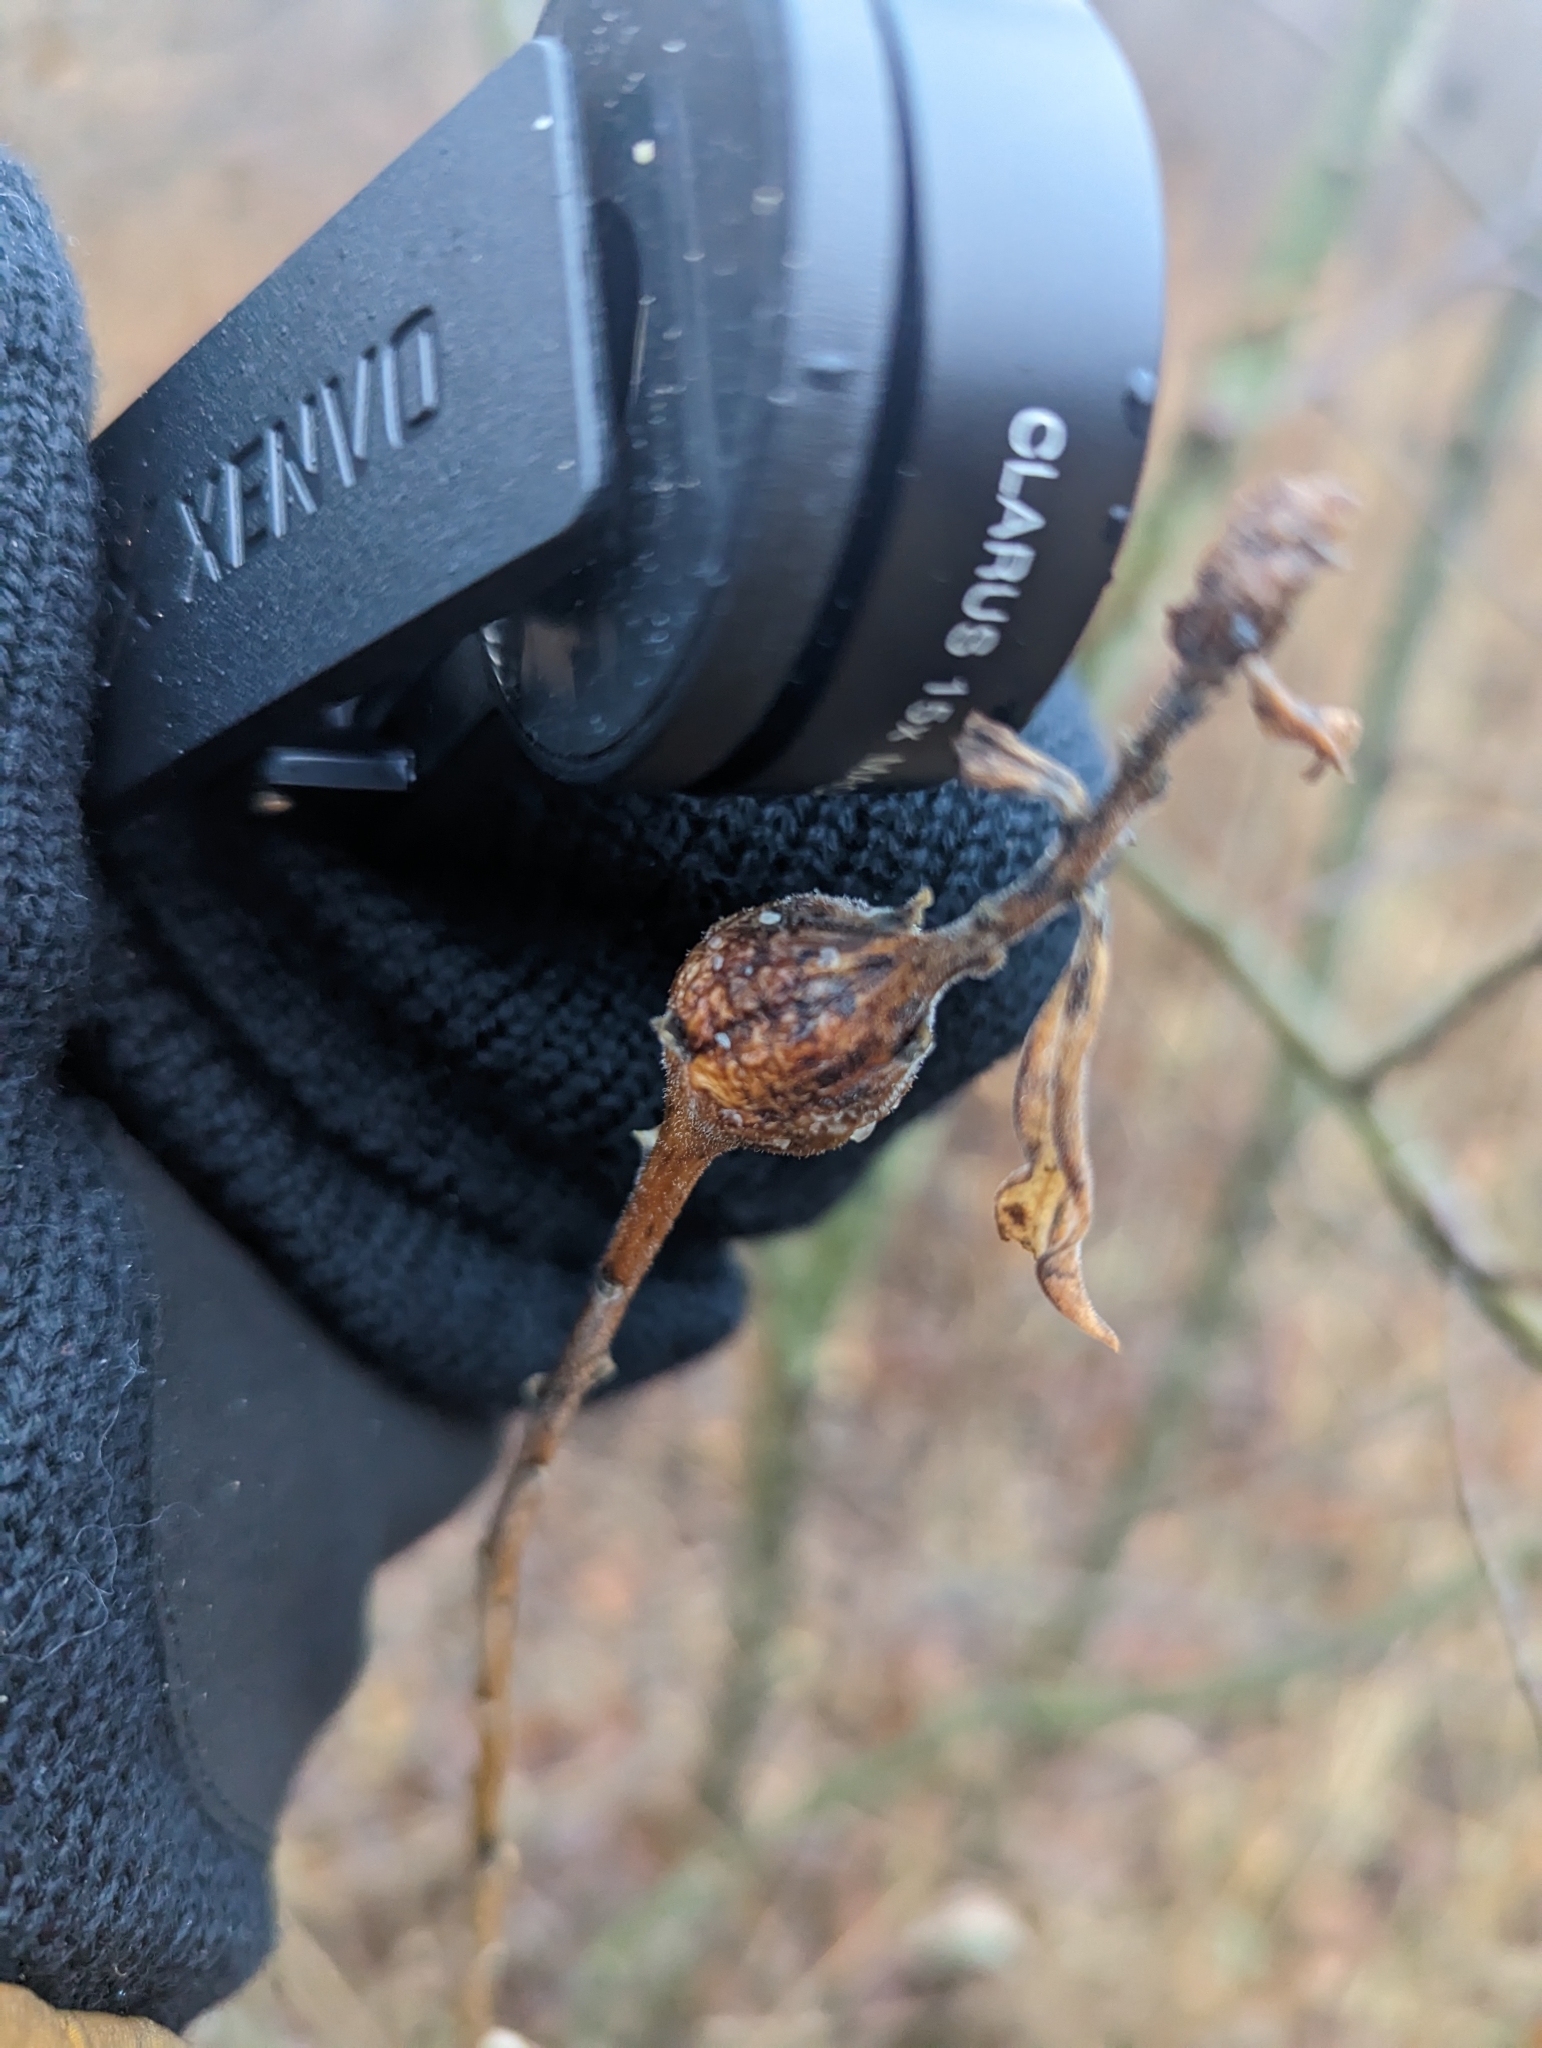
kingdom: Animalia
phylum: Arthropoda
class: Insecta
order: Diptera
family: Tephritidae
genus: Eurosta
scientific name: Eurosta solidaginis
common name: Goldenrod gall fly
